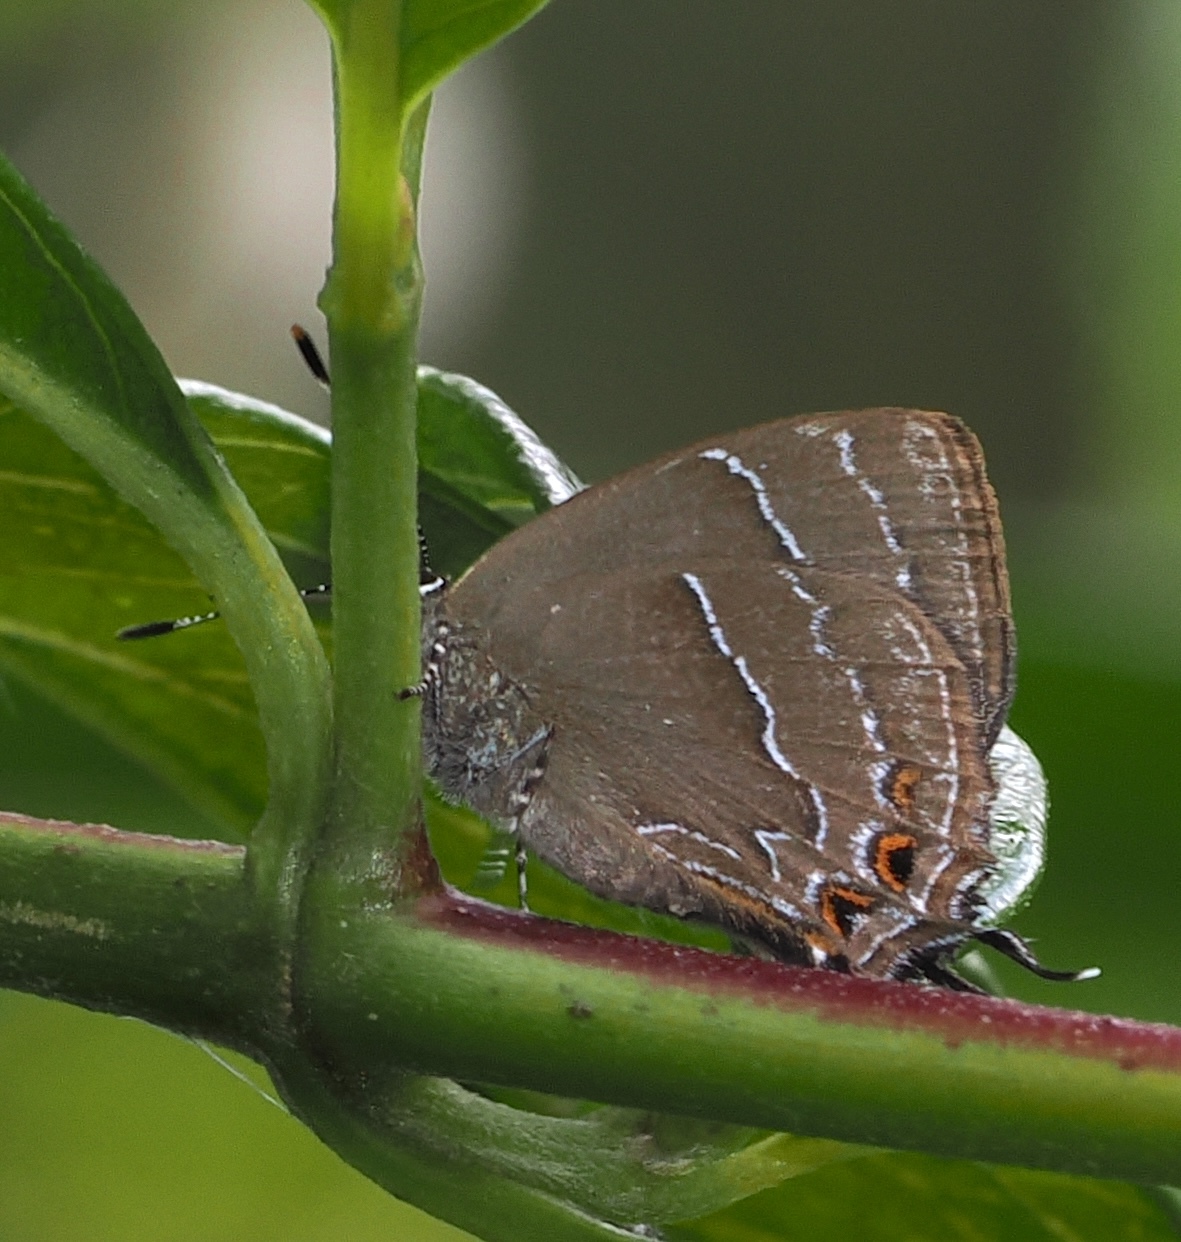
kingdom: Animalia
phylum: Arthropoda
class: Insecta
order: Lepidoptera
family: Lycaenidae
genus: Salazaria
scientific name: Salazaria sala
